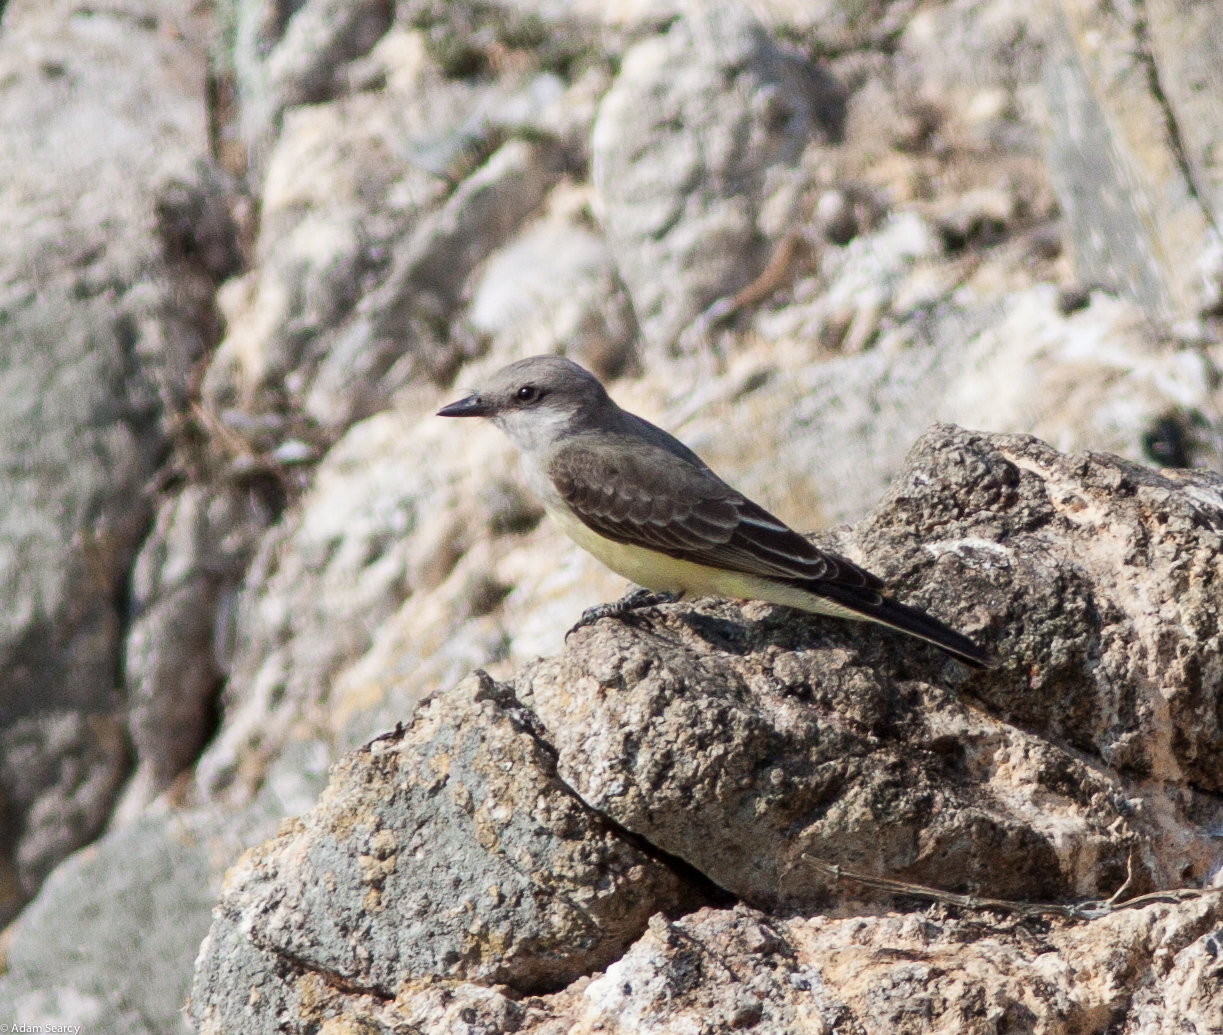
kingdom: Animalia
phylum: Chordata
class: Aves
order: Passeriformes
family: Tyrannidae
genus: Tyrannus
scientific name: Tyrannus verticalis
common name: Western kingbird
